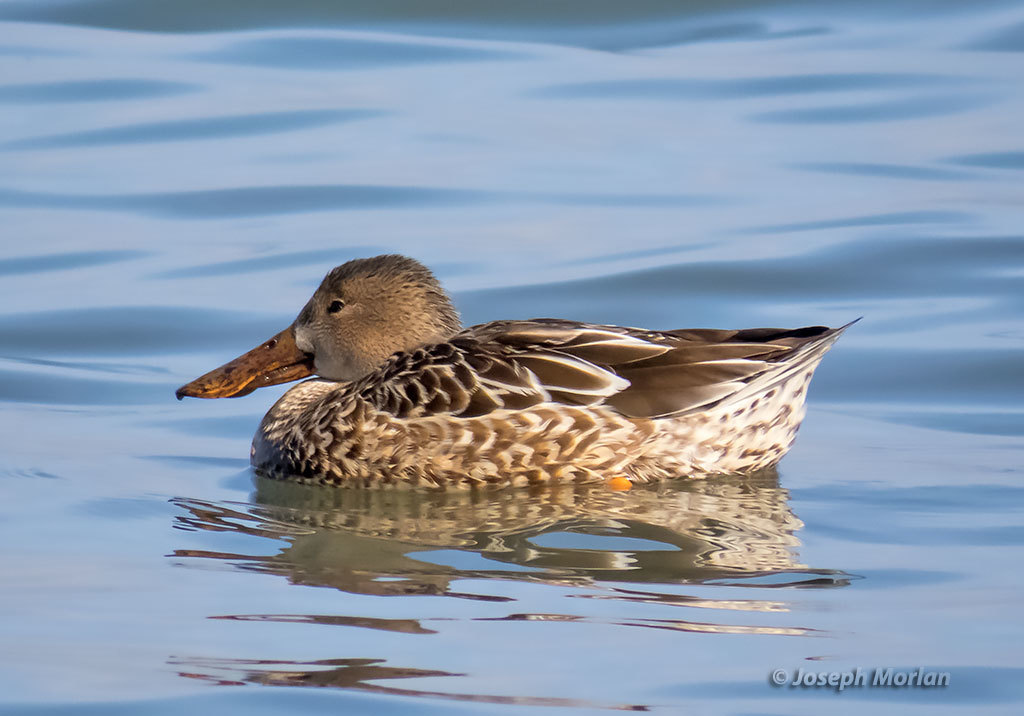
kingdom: Animalia
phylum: Chordata
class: Aves
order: Anseriformes
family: Anatidae
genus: Spatula
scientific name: Spatula clypeata
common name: Northern shoveler
